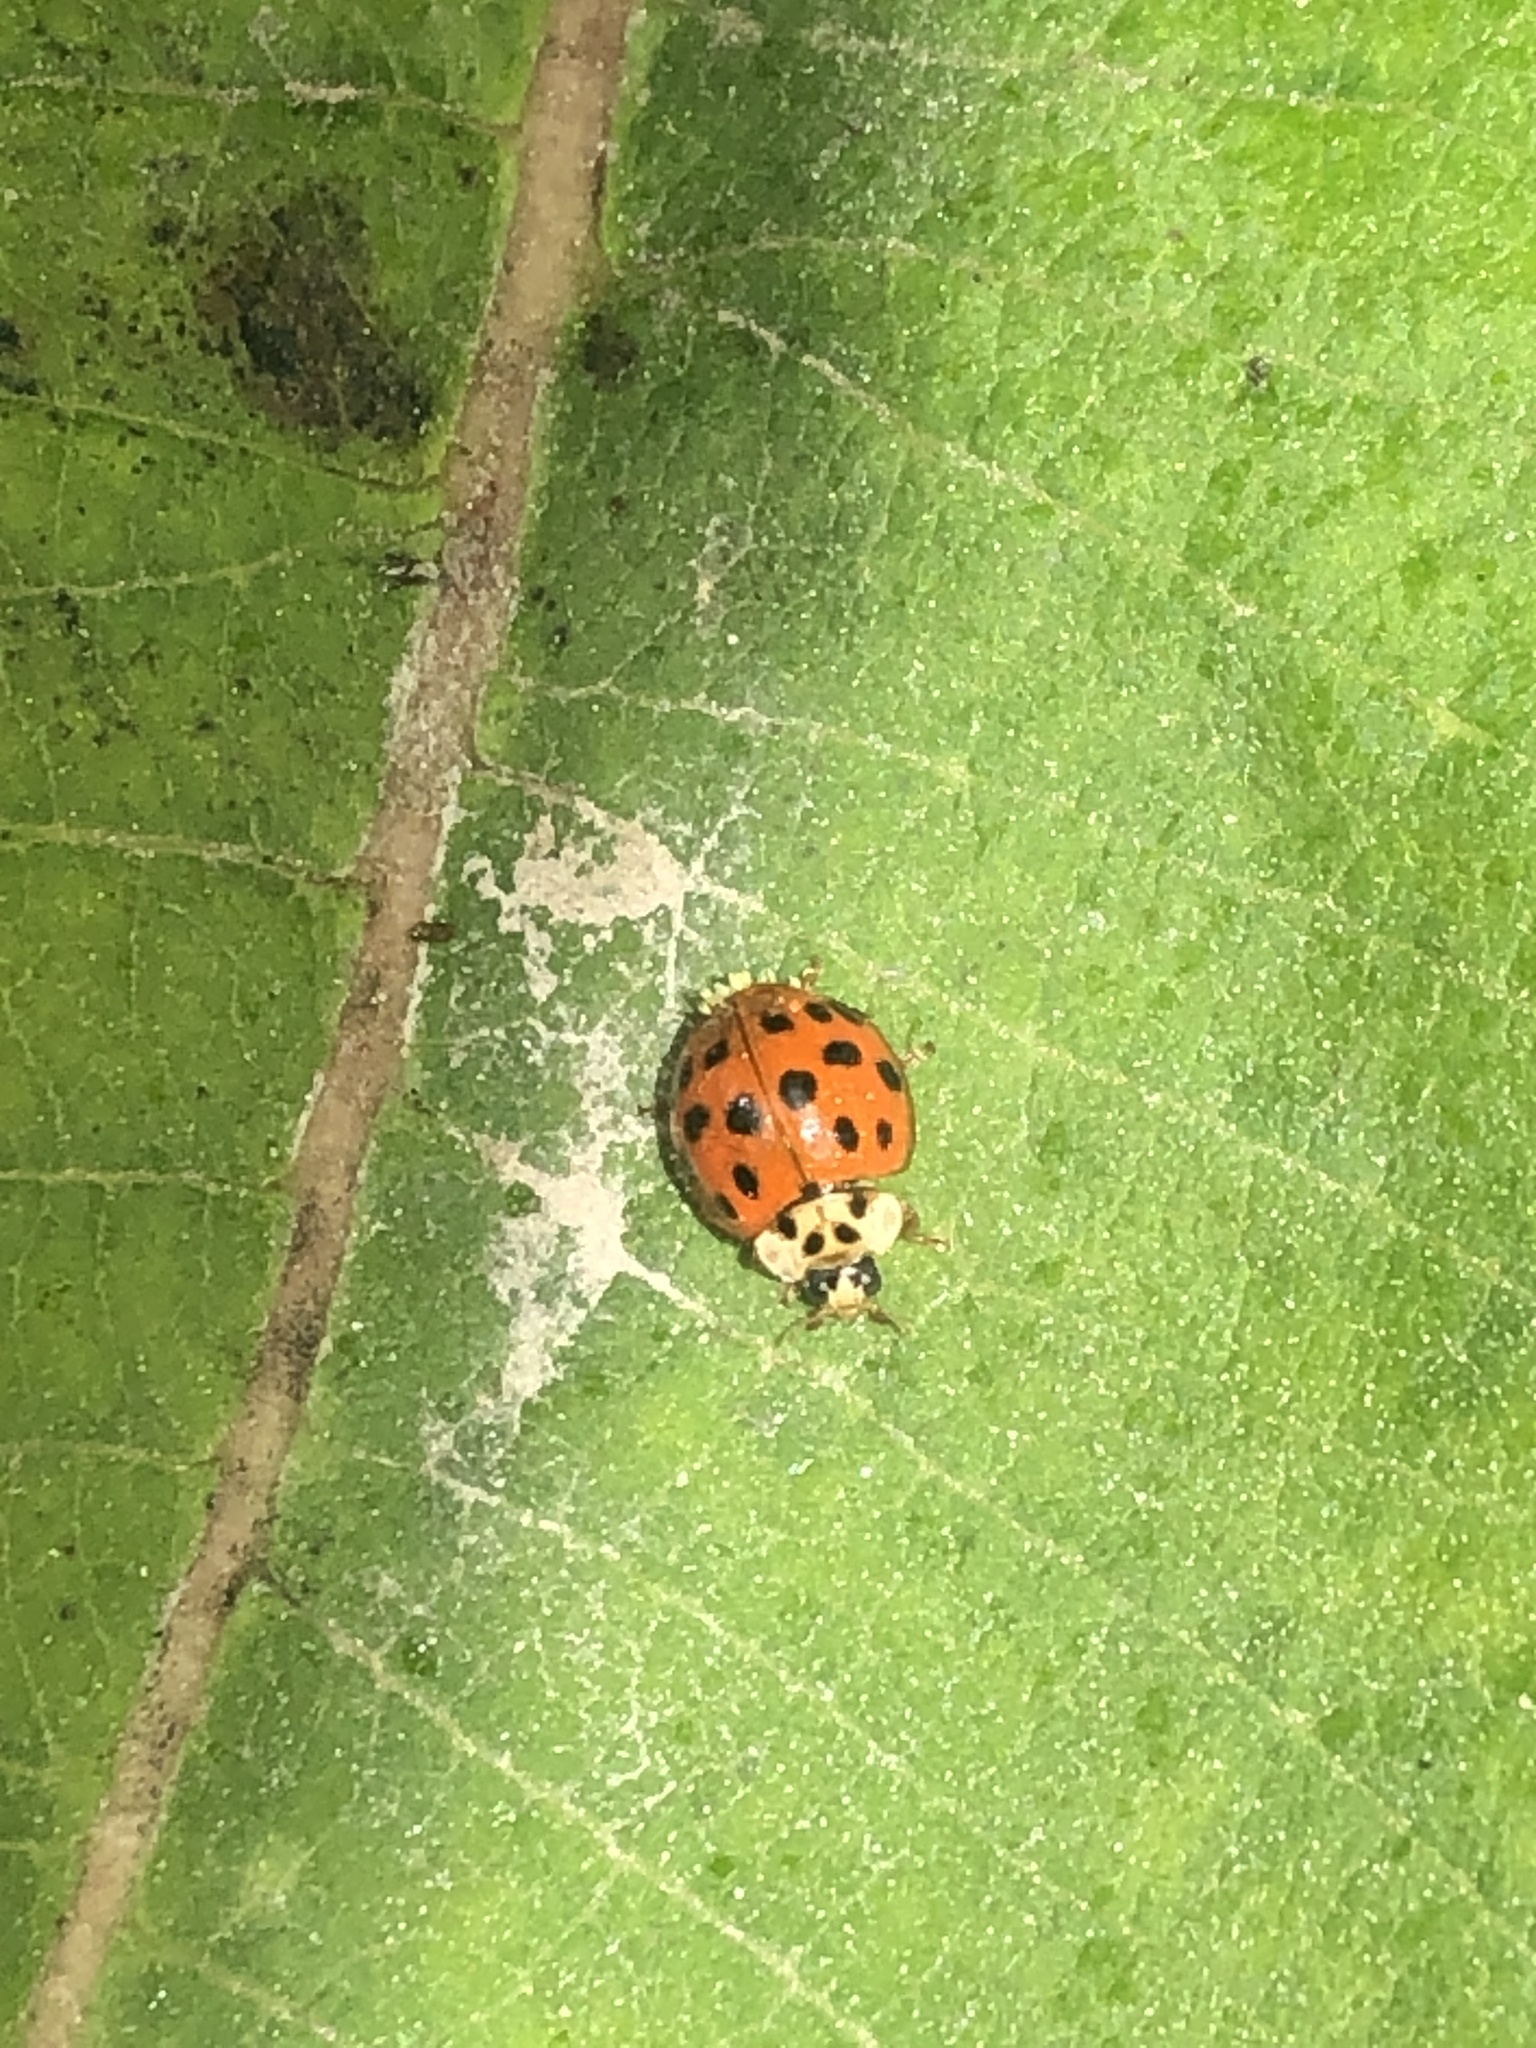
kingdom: Animalia
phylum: Arthropoda
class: Insecta
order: Coleoptera
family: Coccinellidae
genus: Harmonia
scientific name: Harmonia axyridis
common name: Harlequin ladybird
